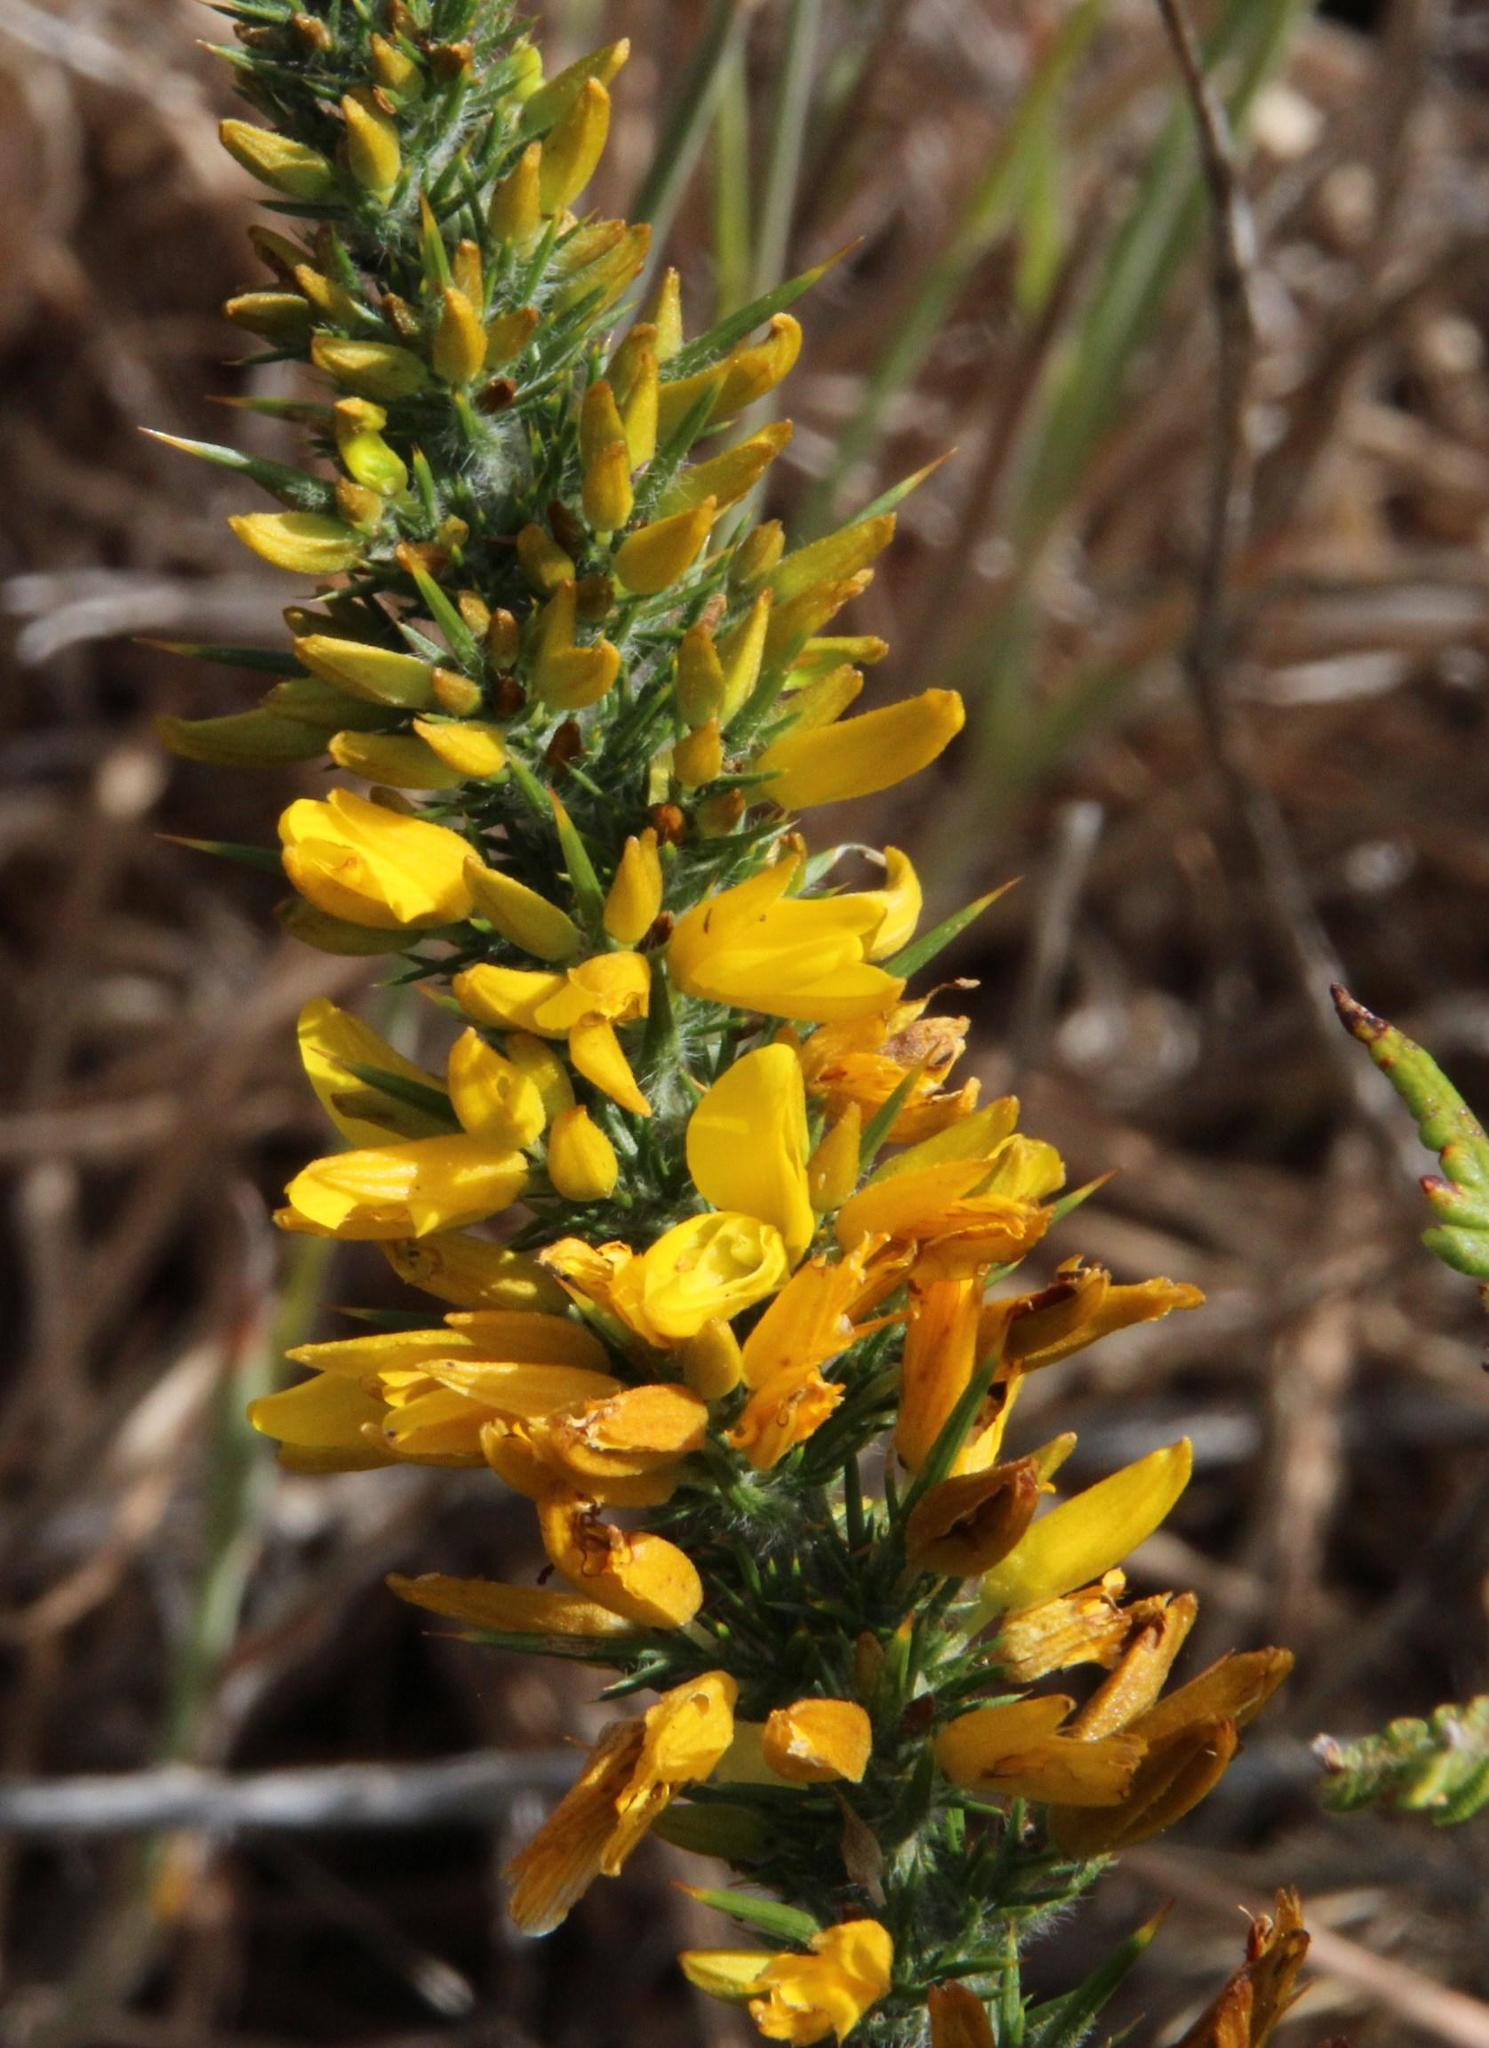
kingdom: Plantae
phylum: Tracheophyta
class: Magnoliopsida
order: Fabales
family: Fabaceae
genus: Ulex
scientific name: Ulex europaeus
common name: Common gorse
